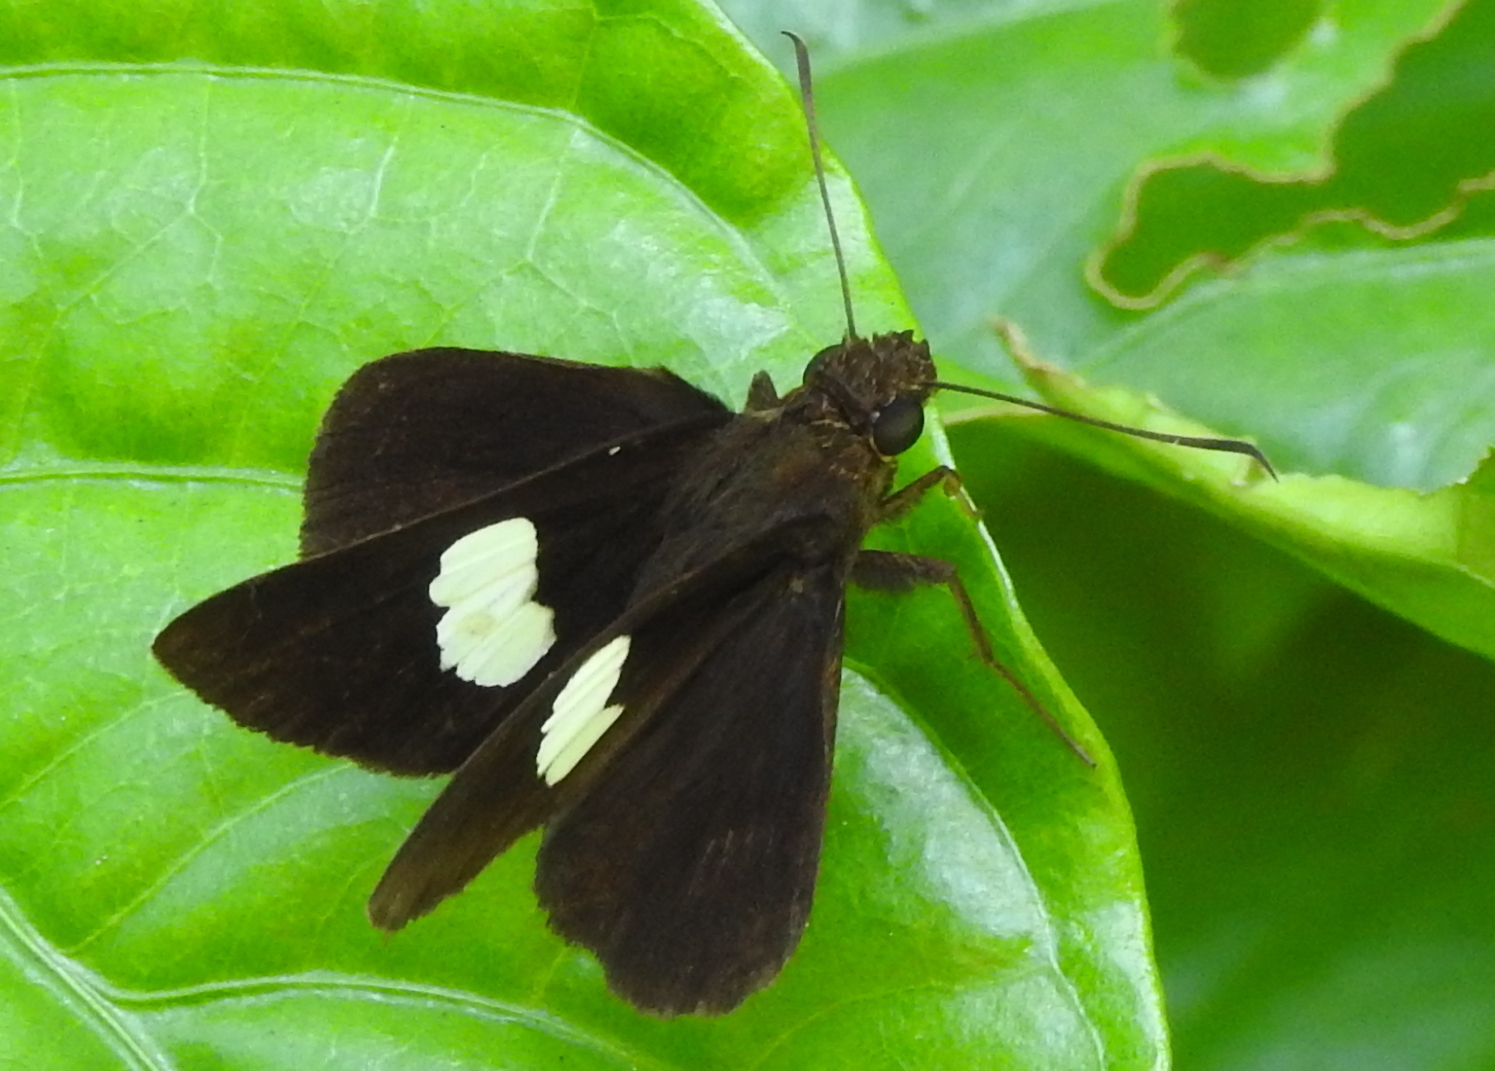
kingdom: Animalia
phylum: Arthropoda
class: Insecta
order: Lepidoptera
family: Hesperiidae
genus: Notocrypta
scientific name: Notocrypta paralysos
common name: Common banded demon
